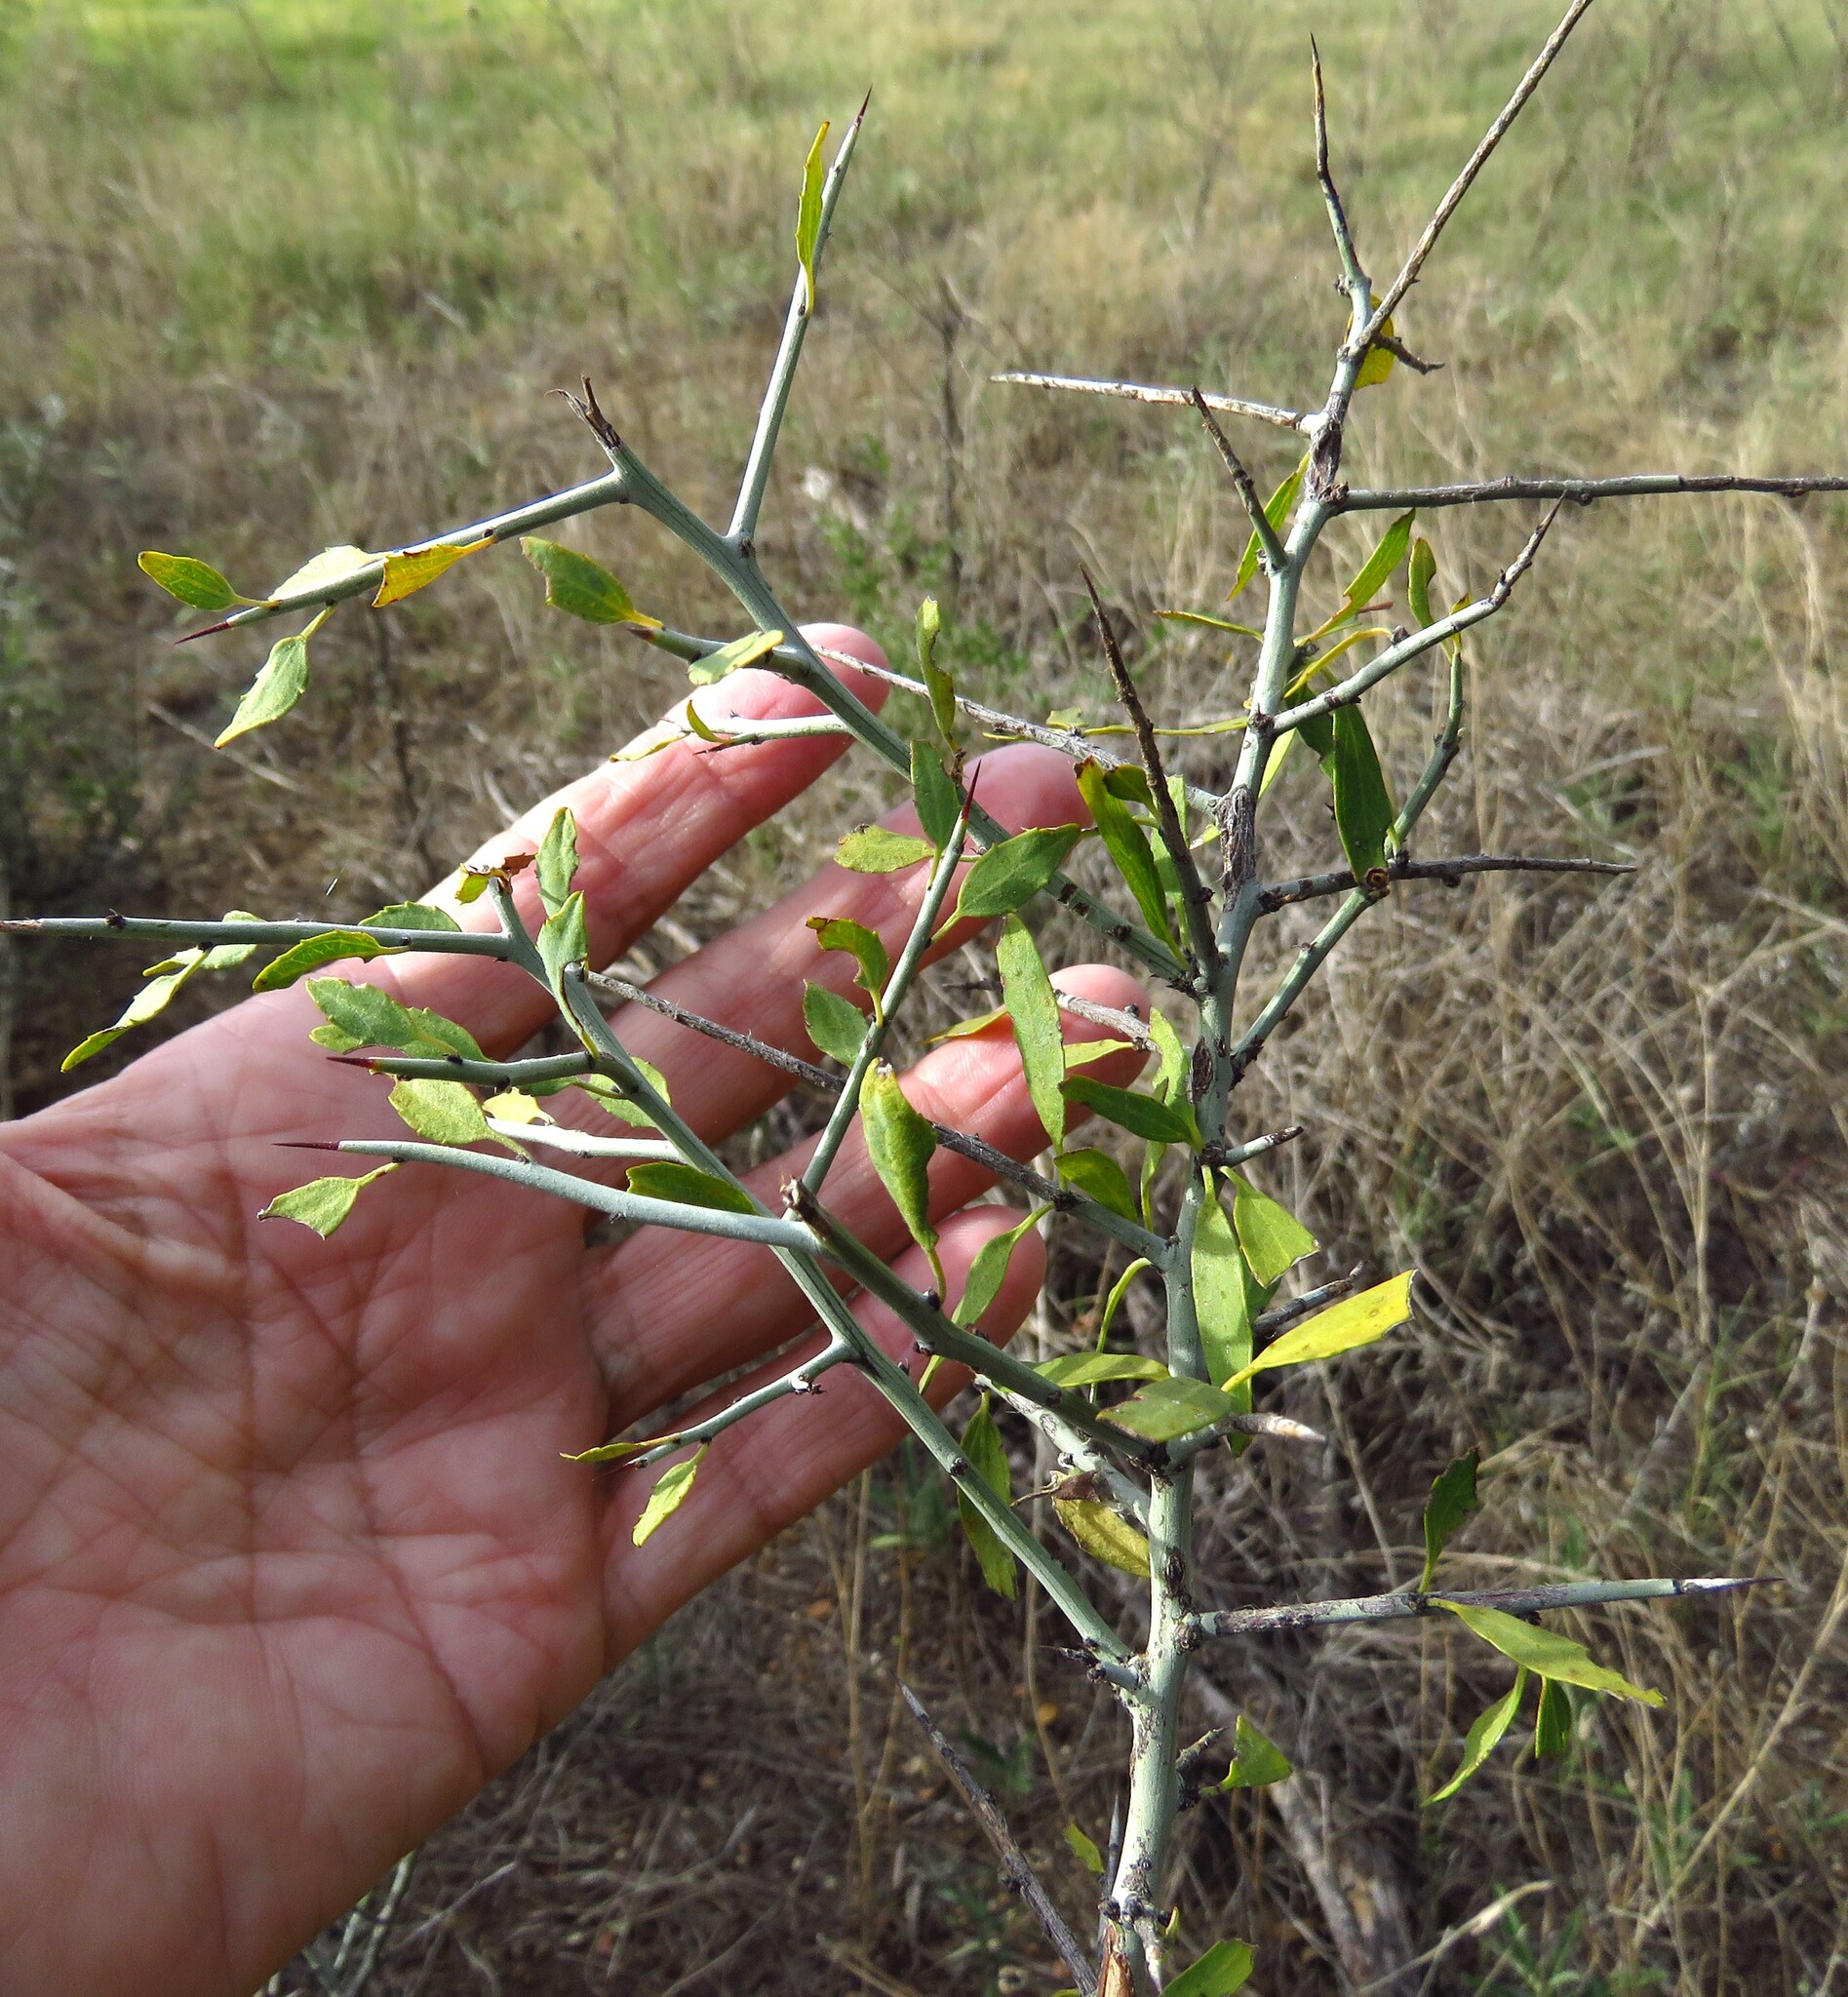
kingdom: Plantae
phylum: Tracheophyta
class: Magnoliopsida
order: Rosales
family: Rhamnaceae
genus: Sarcomphalus
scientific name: Sarcomphalus obtusifolius
